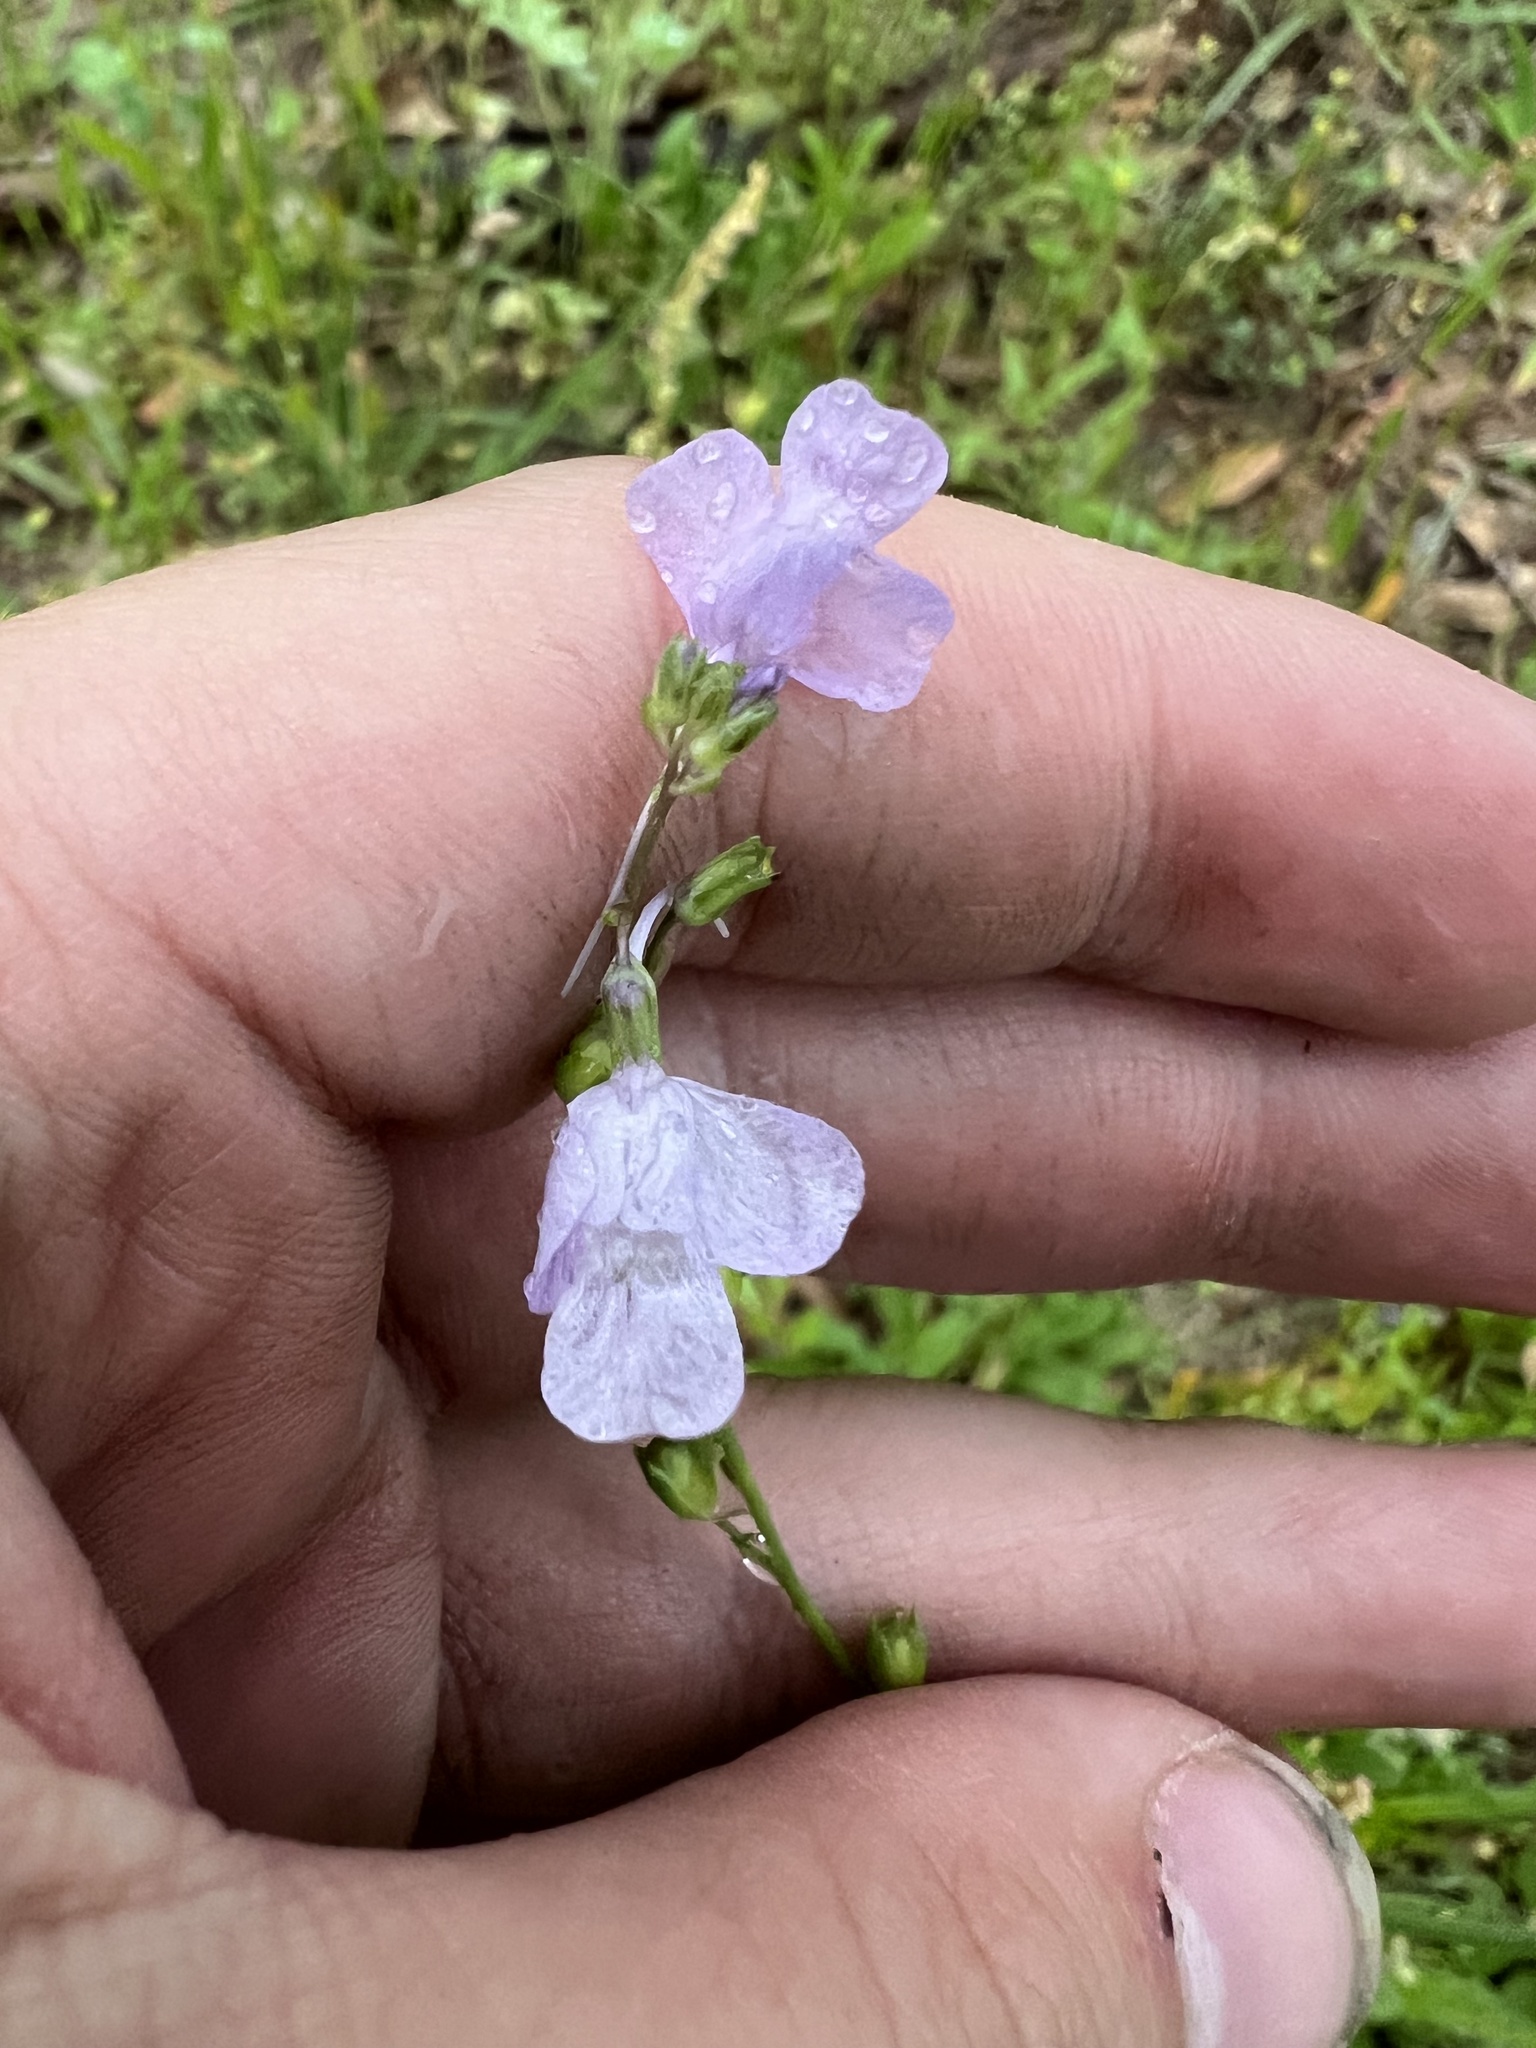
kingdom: Plantae
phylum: Tracheophyta
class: Magnoliopsida
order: Lamiales
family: Plantaginaceae
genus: Nuttallanthus
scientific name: Nuttallanthus texanus
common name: Texas toadflax
